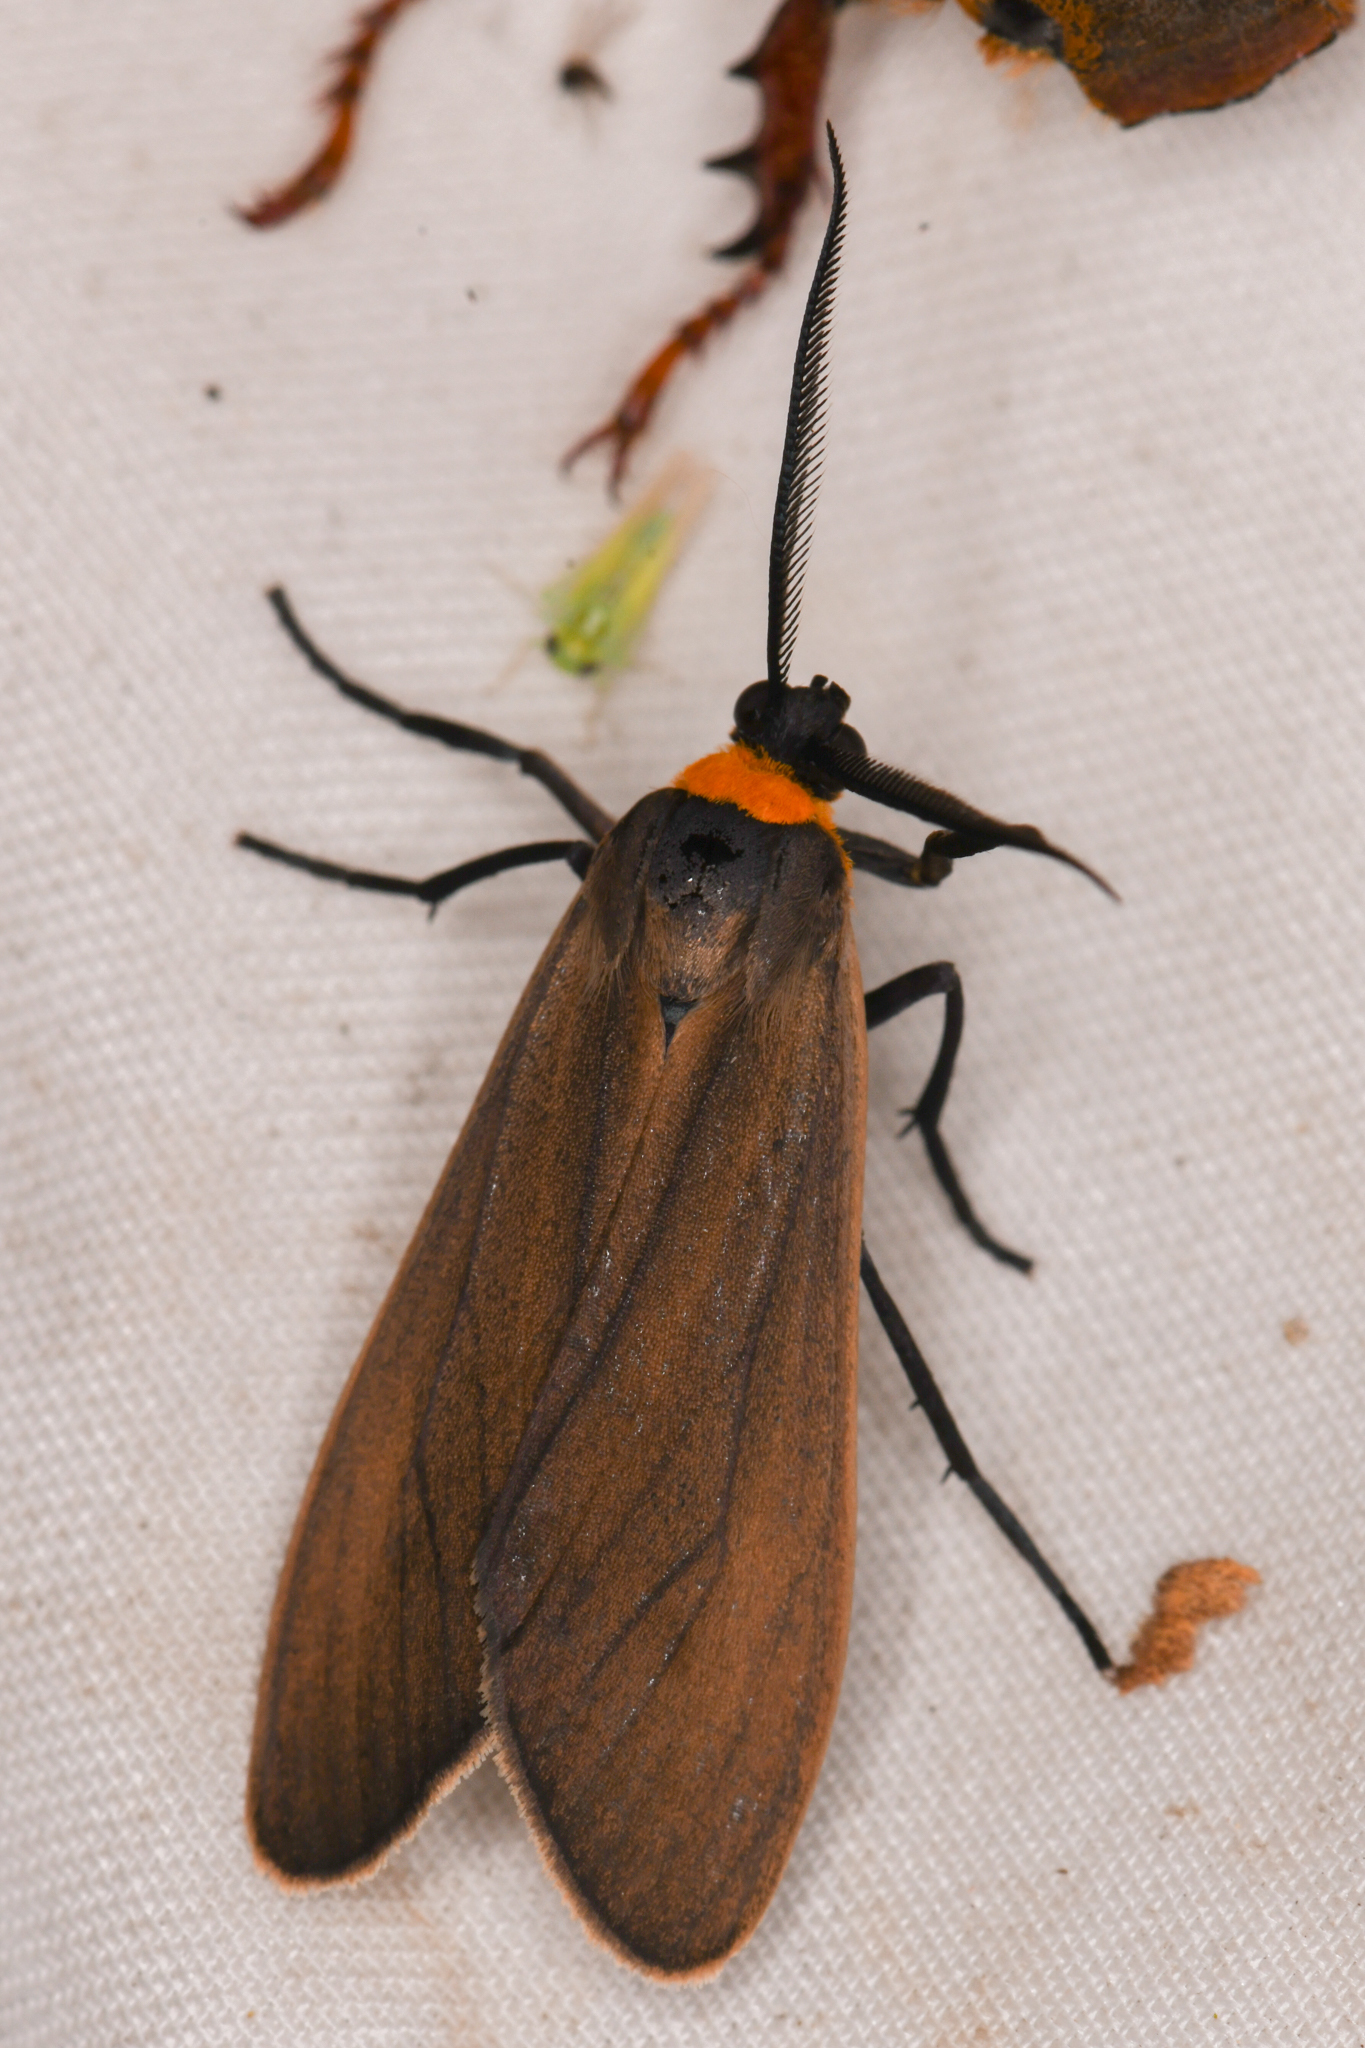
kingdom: Animalia
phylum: Arthropoda
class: Insecta
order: Lepidoptera
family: Erebidae
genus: Cisseps
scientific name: Cisseps fulvicollis
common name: Yellow-collared scape moth
